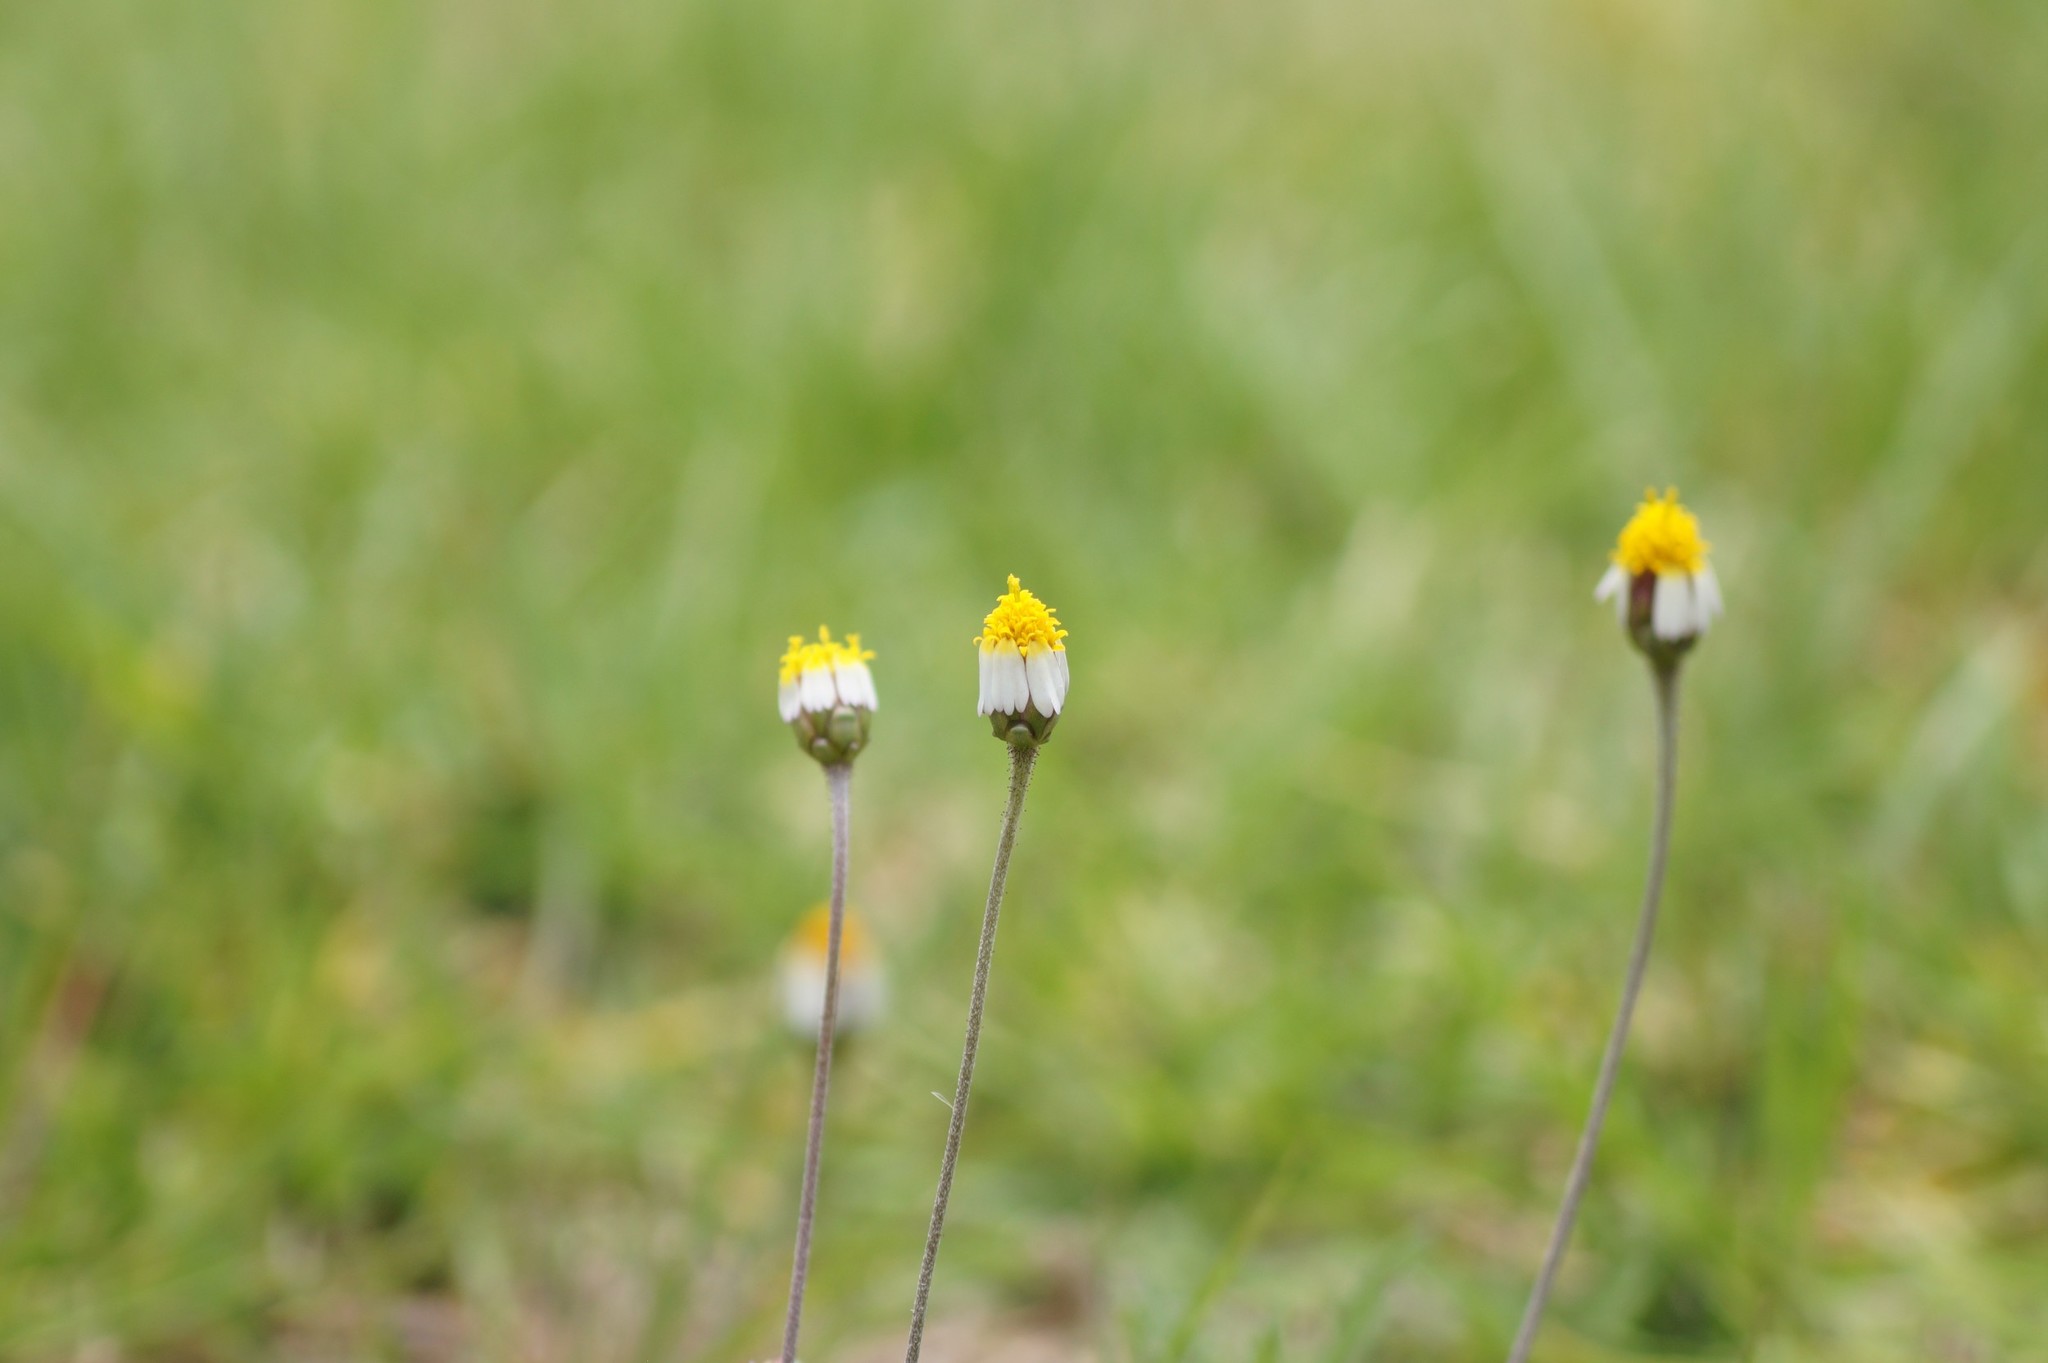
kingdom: Plantae
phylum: Tracheophyta
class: Magnoliopsida
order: Asterales
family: Asteraceae
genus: Tridax
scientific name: Tridax rosea
